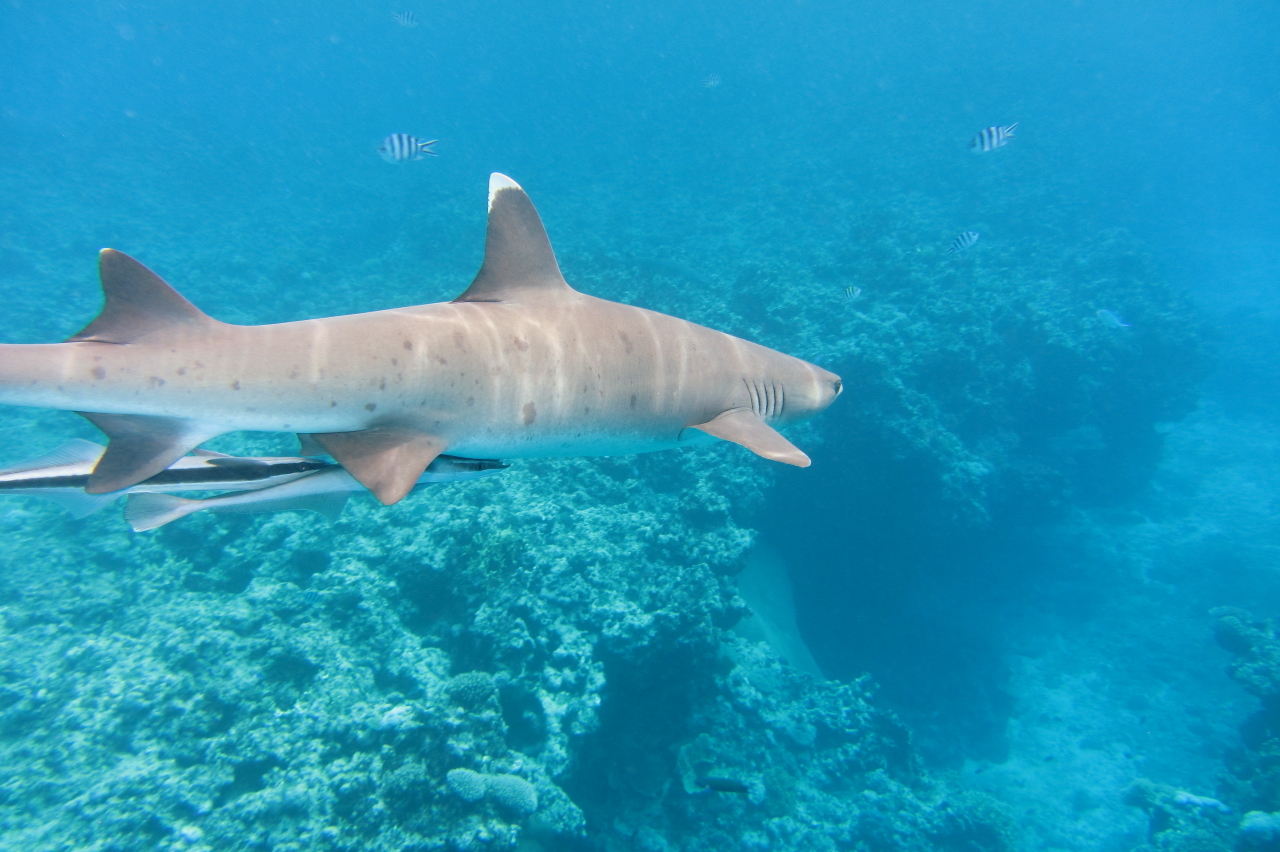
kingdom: Animalia
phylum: Chordata
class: Elasmobranchii
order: Carcharhiniformes
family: Carcharhinidae
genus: Triaenodon
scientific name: Triaenodon obesus
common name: Whitetip reef shark
